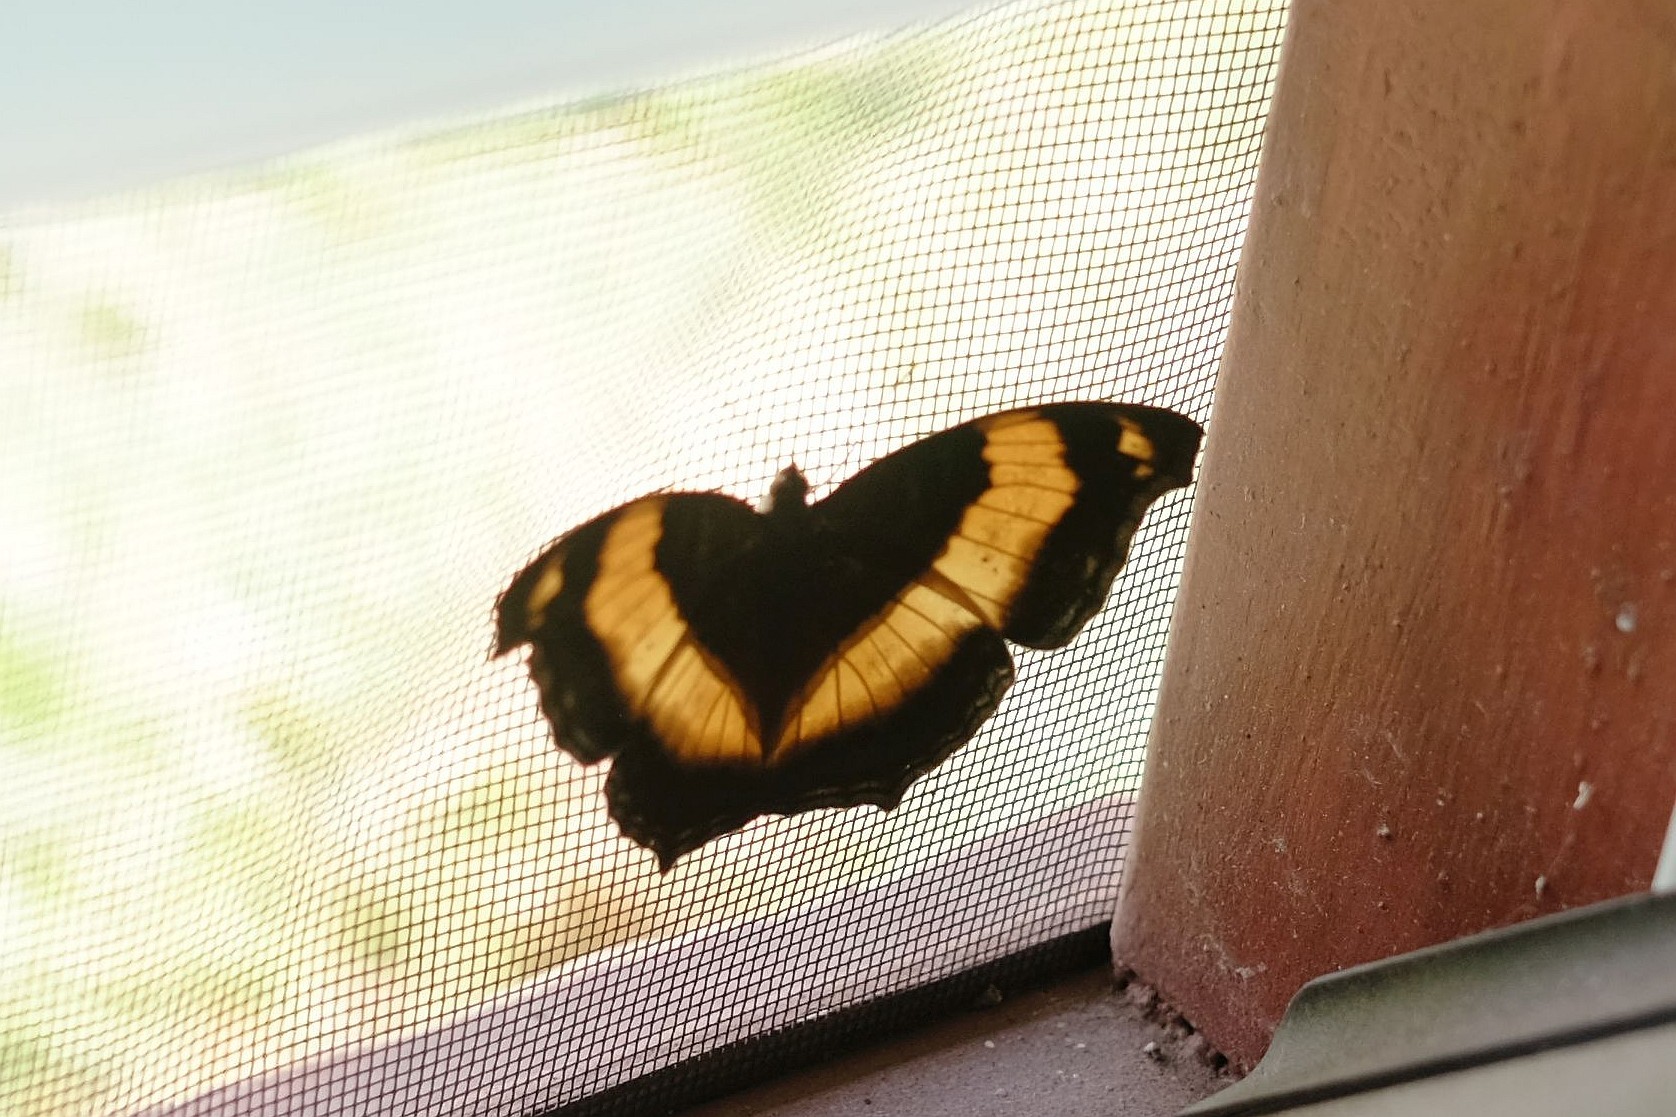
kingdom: Animalia
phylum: Arthropoda
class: Insecta
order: Lepidoptera
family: Nymphalidae
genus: Yoma
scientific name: Yoma sabina
